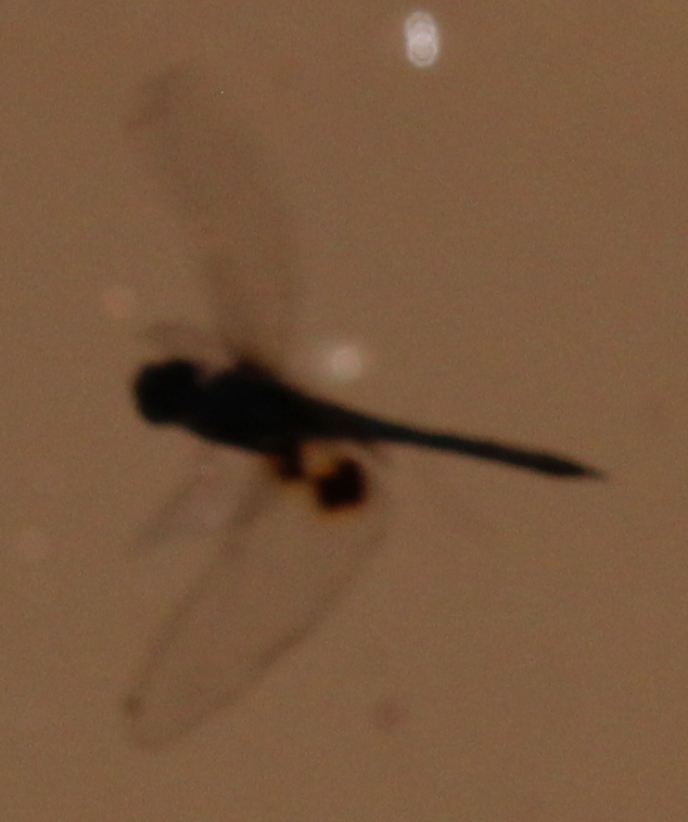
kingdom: Animalia
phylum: Arthropoda
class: Insecta
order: Odonata
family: Libellulidae
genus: Tramea
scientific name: Tramea basilaris
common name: Keyhole glider
